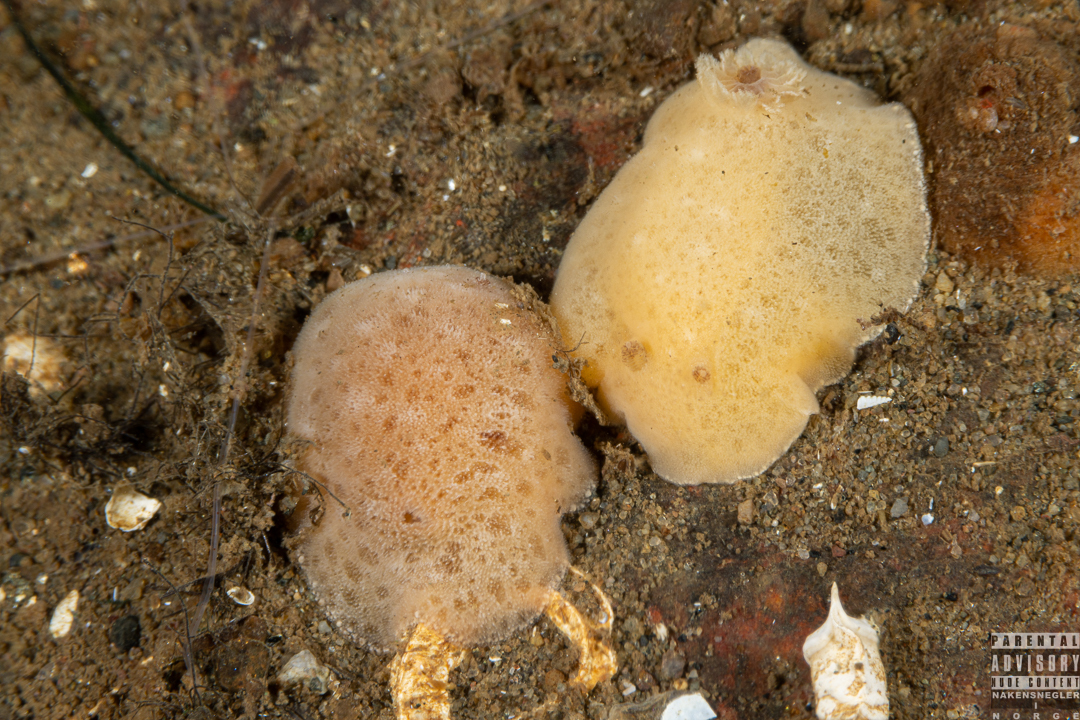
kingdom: Animalia
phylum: Mollusca
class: Gastropoda
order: Nudibranchia
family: Discodorididae
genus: Jorunna
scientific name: Jorunna tomentosa
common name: Grey sea slug
